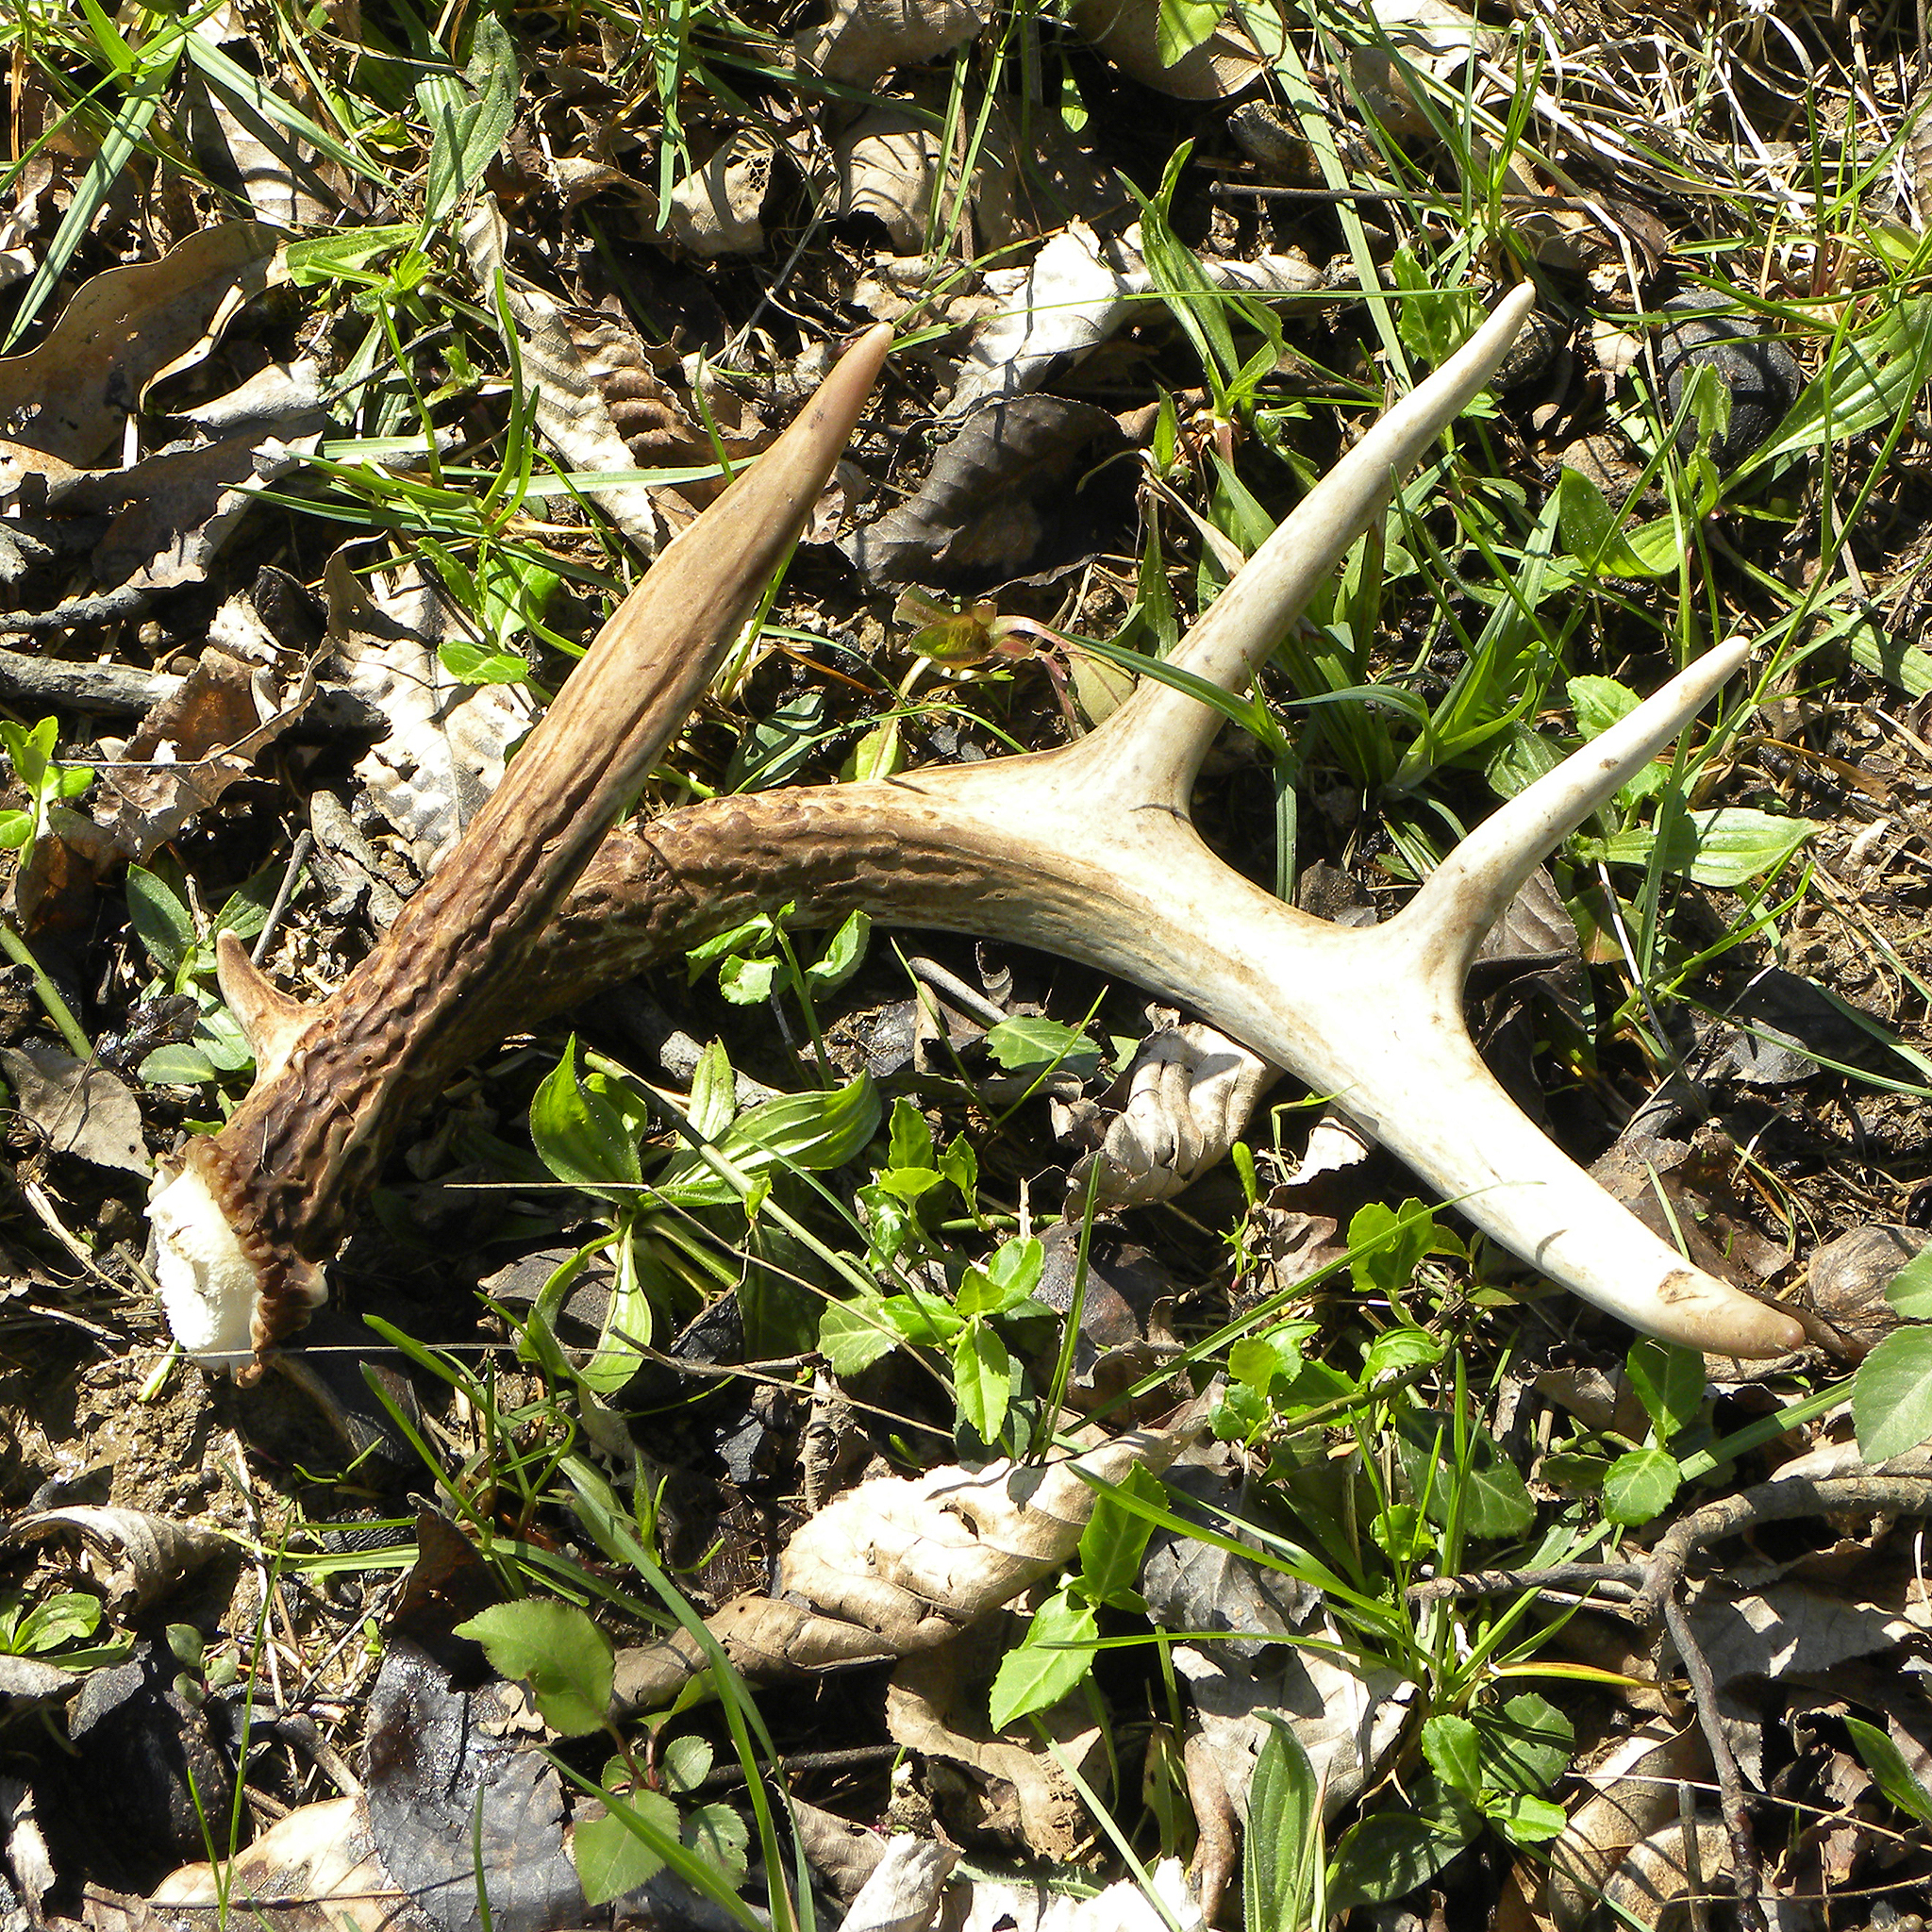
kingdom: Animalia
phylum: Chordata
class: Mammalia
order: Artiodactyla
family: Cervidae
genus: Odocoileus
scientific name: Odocoileus virginianus
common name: White-tailed deer
